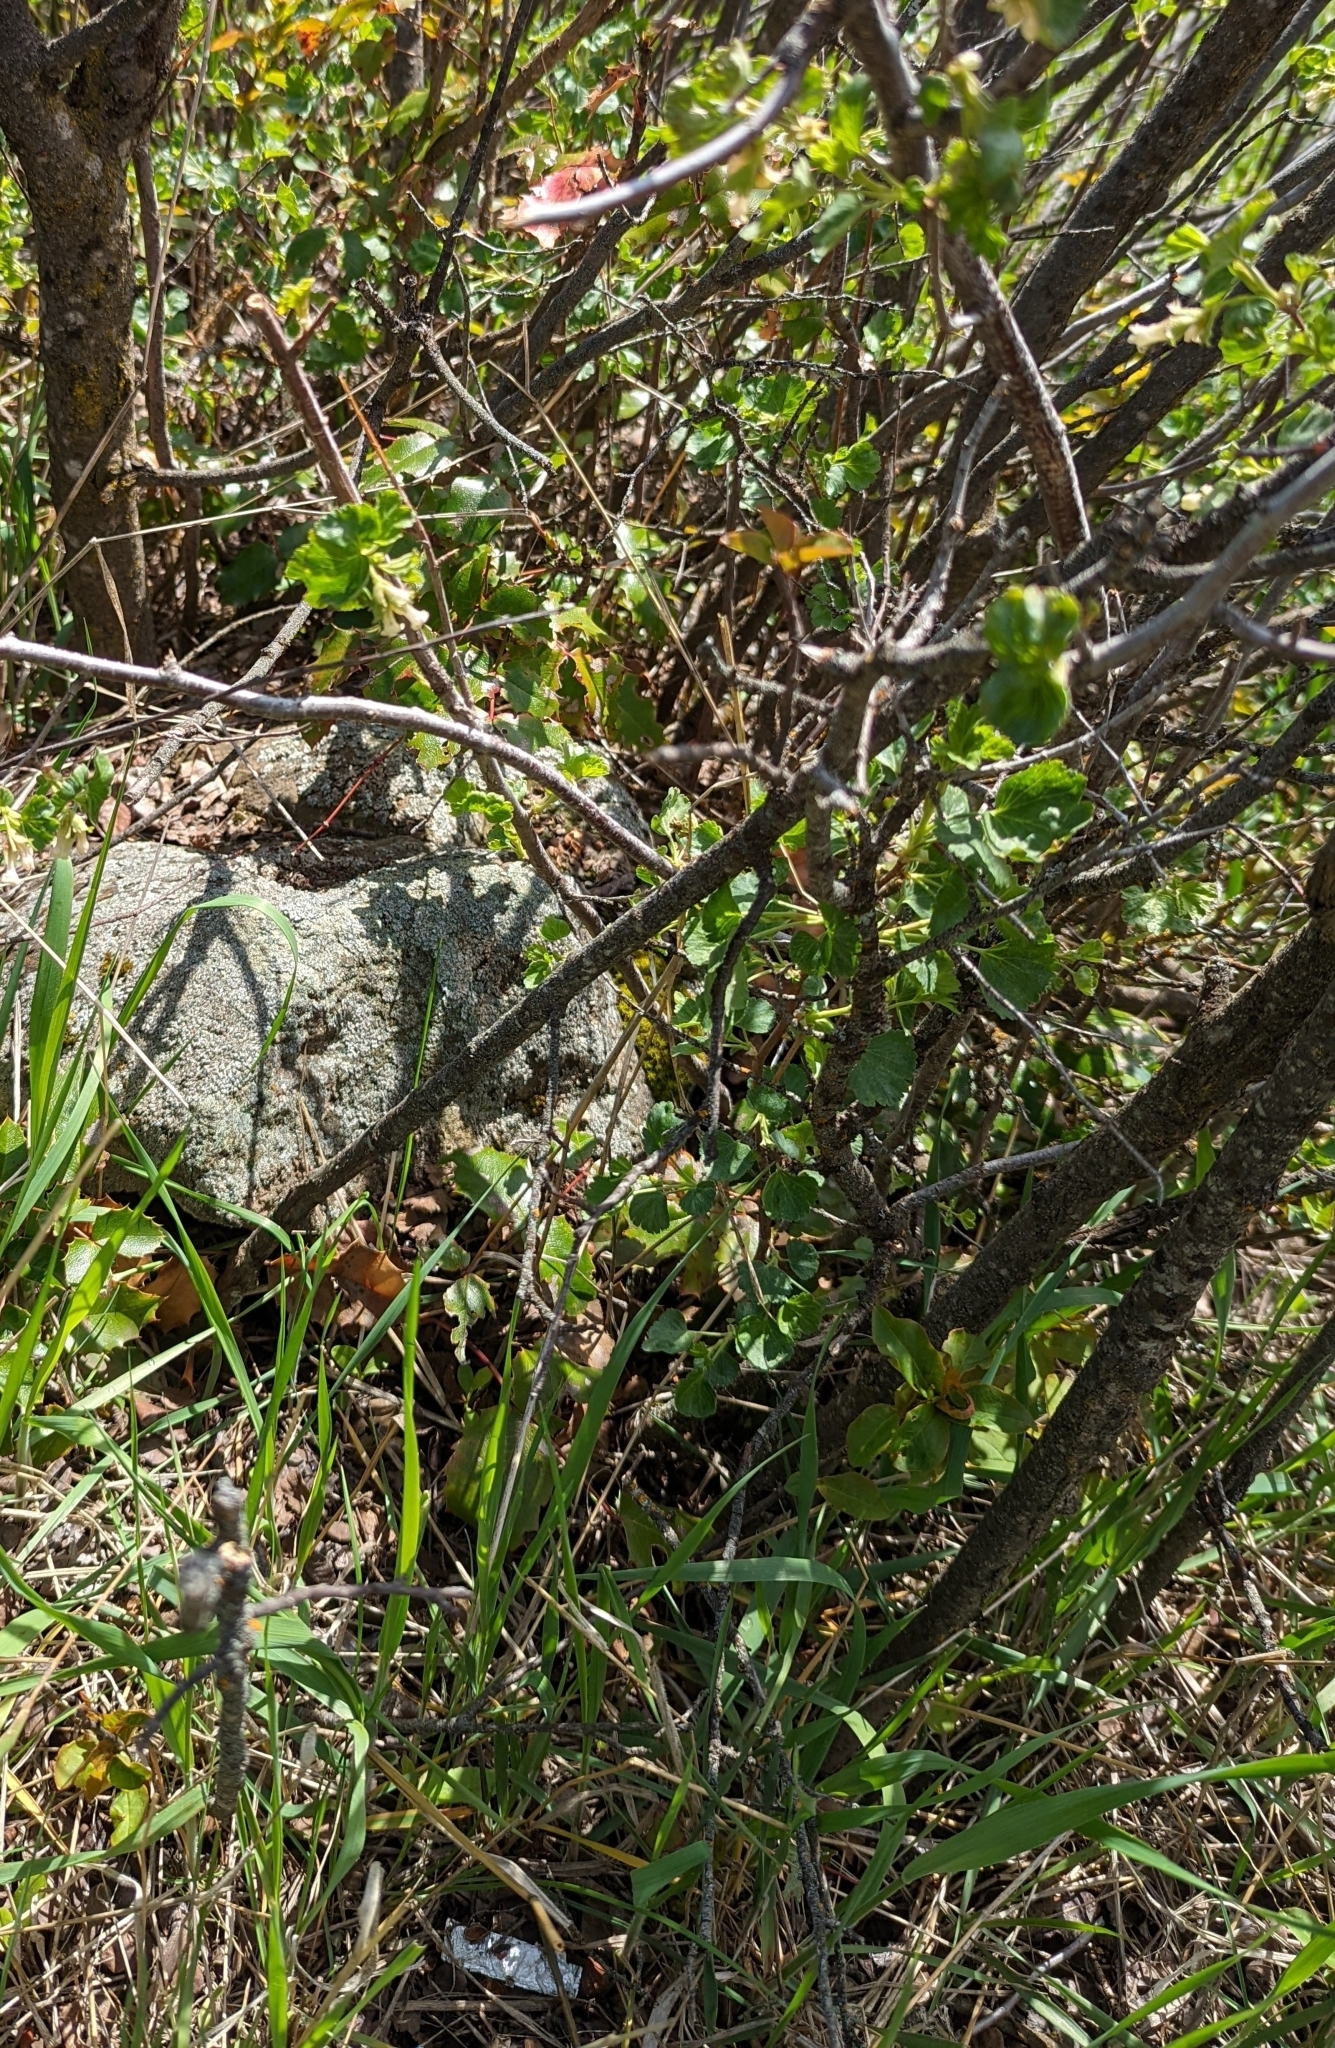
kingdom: Plantae
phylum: Tracheophyta
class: Magnoliopsida
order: Saxifragales
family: Grossulariaceae
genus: Ribes
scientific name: Ribes cereum
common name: Wax currant
